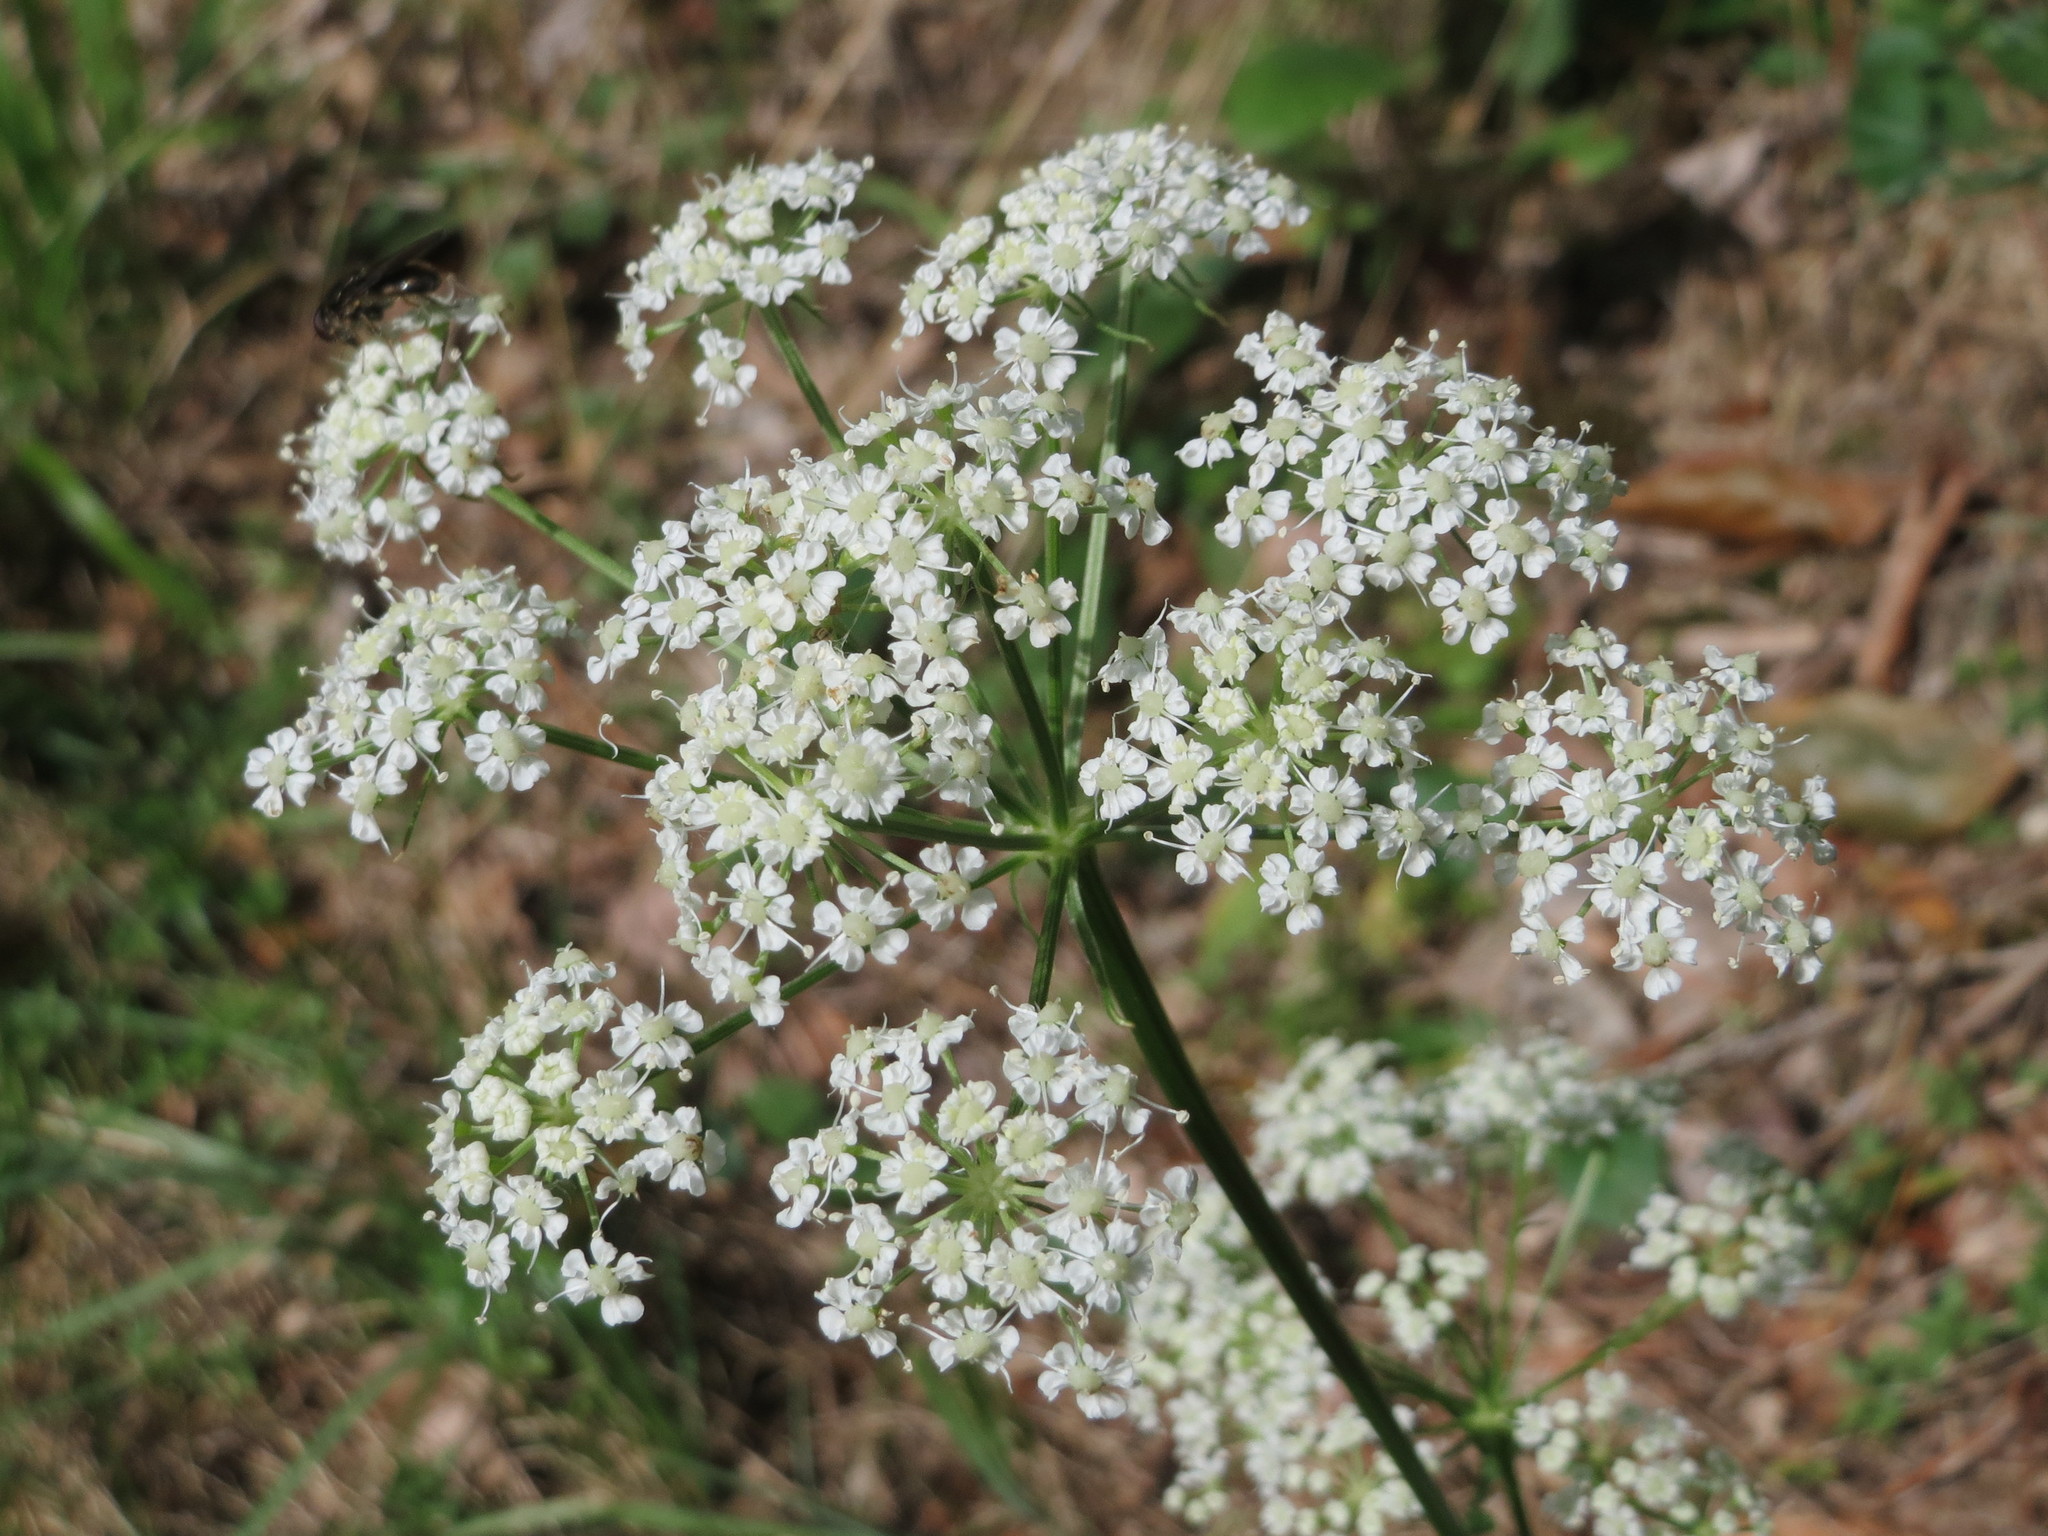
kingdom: Plantae
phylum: Tracheophyta
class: Magnoliopsida
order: Apiales
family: Apiaceae
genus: Oreoselinum
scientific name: Oreoselinum nigrum
